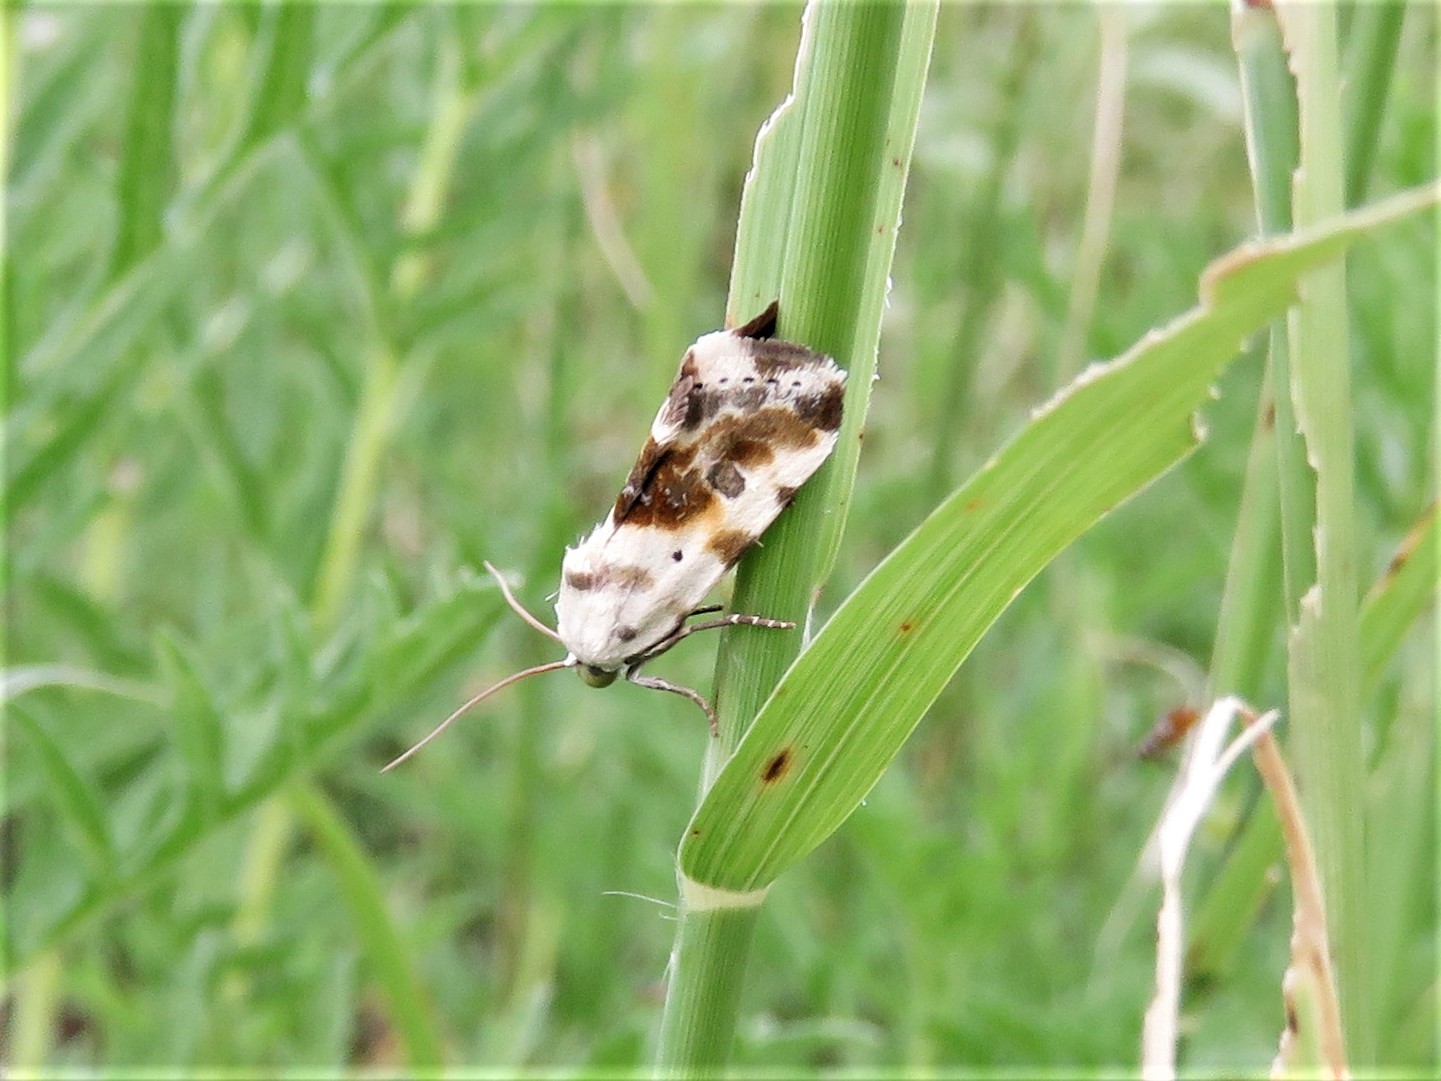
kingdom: Animalia
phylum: Arthropoda
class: Insecta
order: Lepidoptera
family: Noctuidae
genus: Acontia
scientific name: Acontia candefacta
